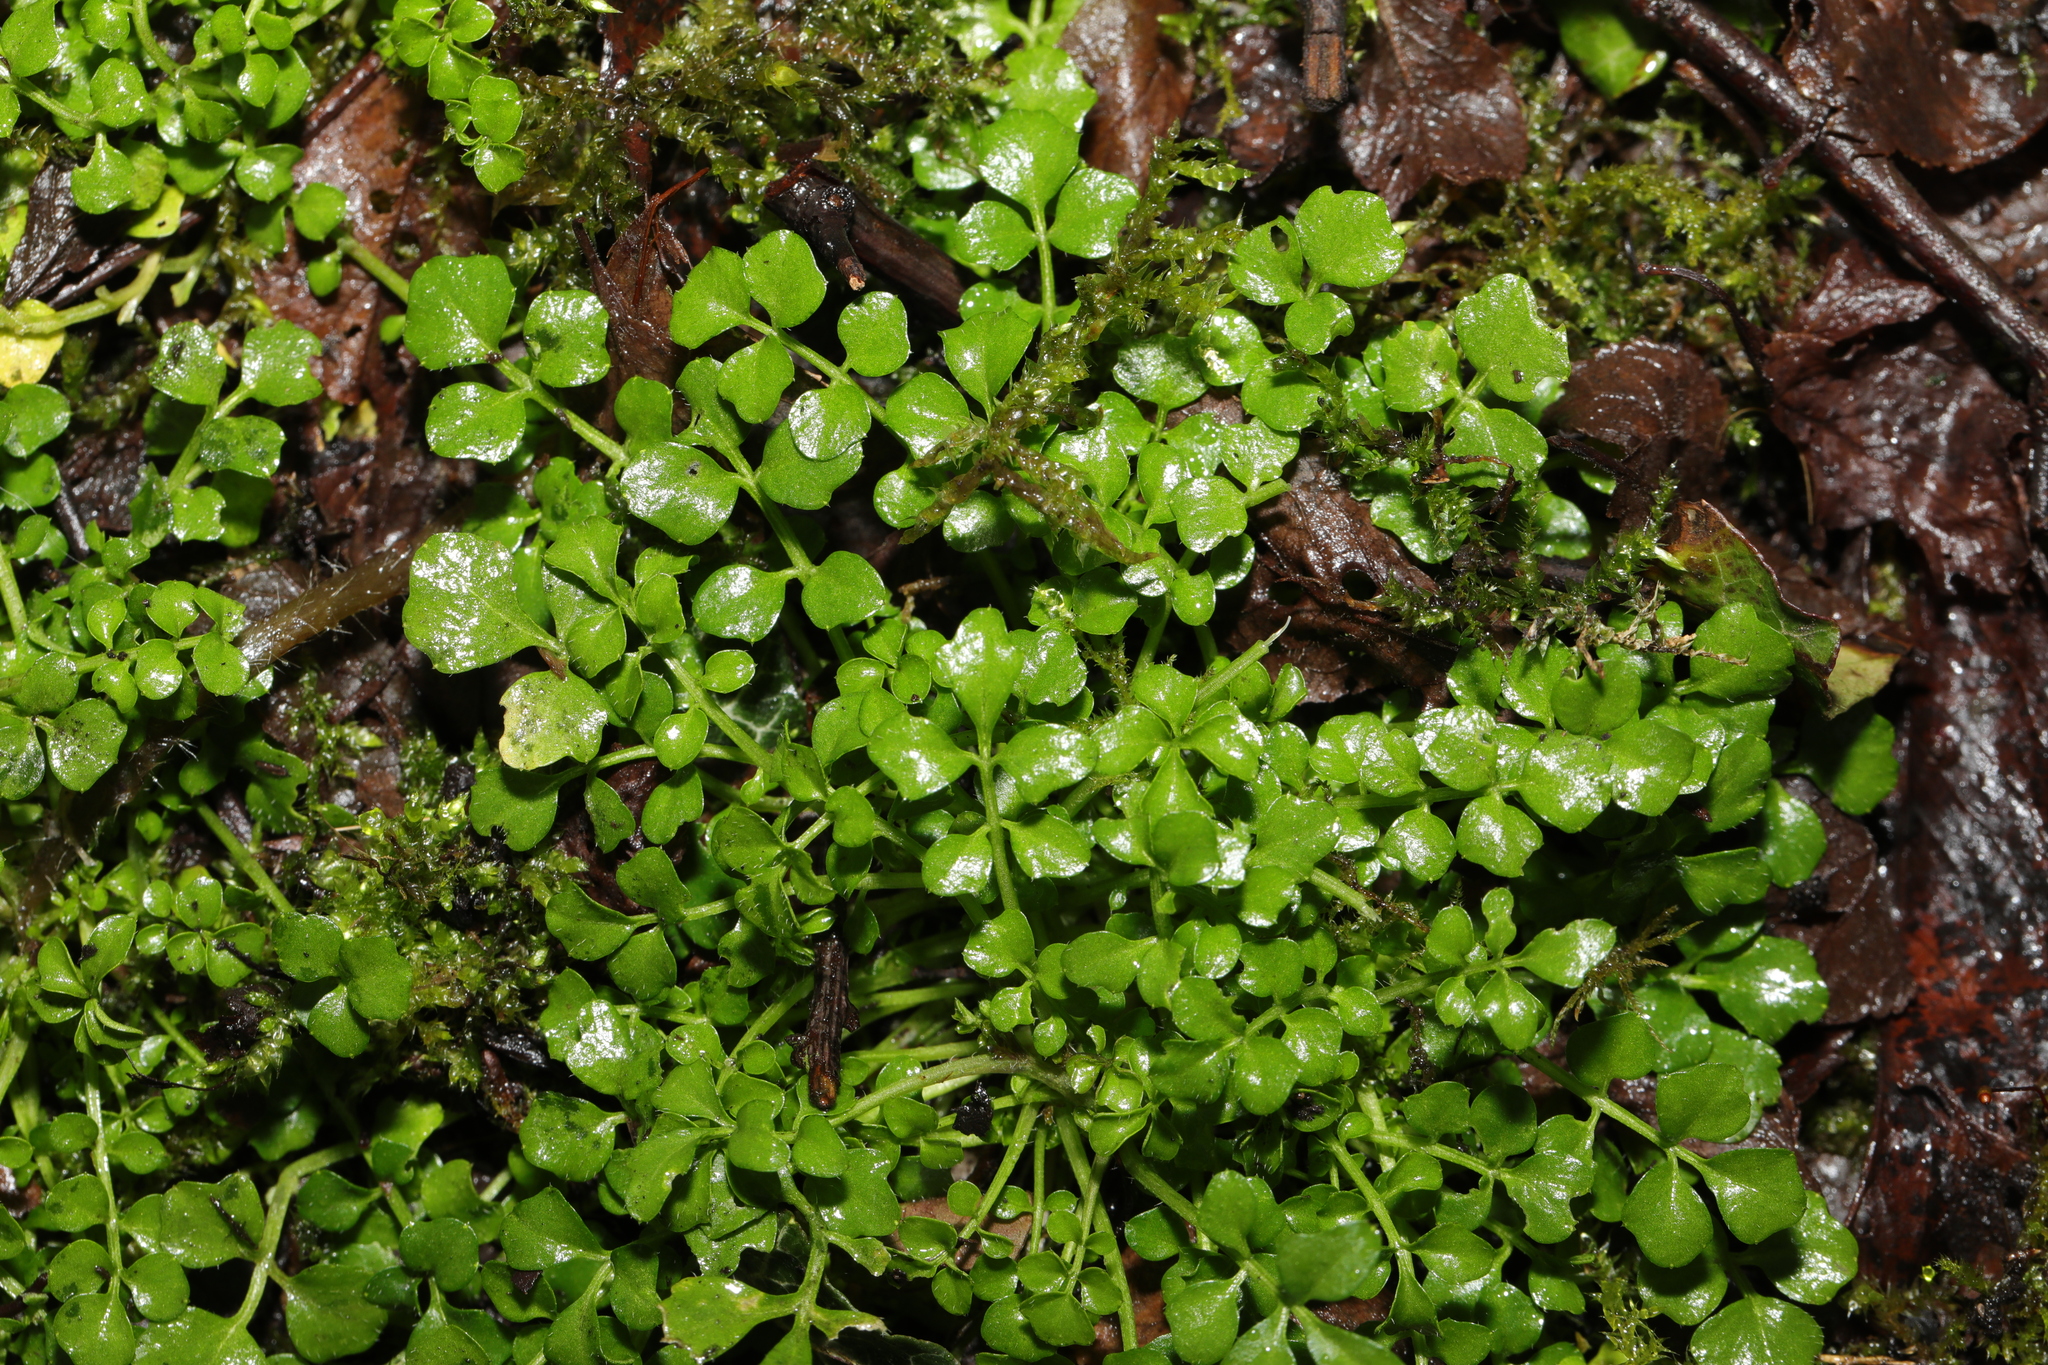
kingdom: Plantae
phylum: Tracheophyta
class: Magnoliopsida
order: Brassicales
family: Brassicaceae
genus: Cardamine
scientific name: Cardamine flexuosa
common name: Woodland bittercress
